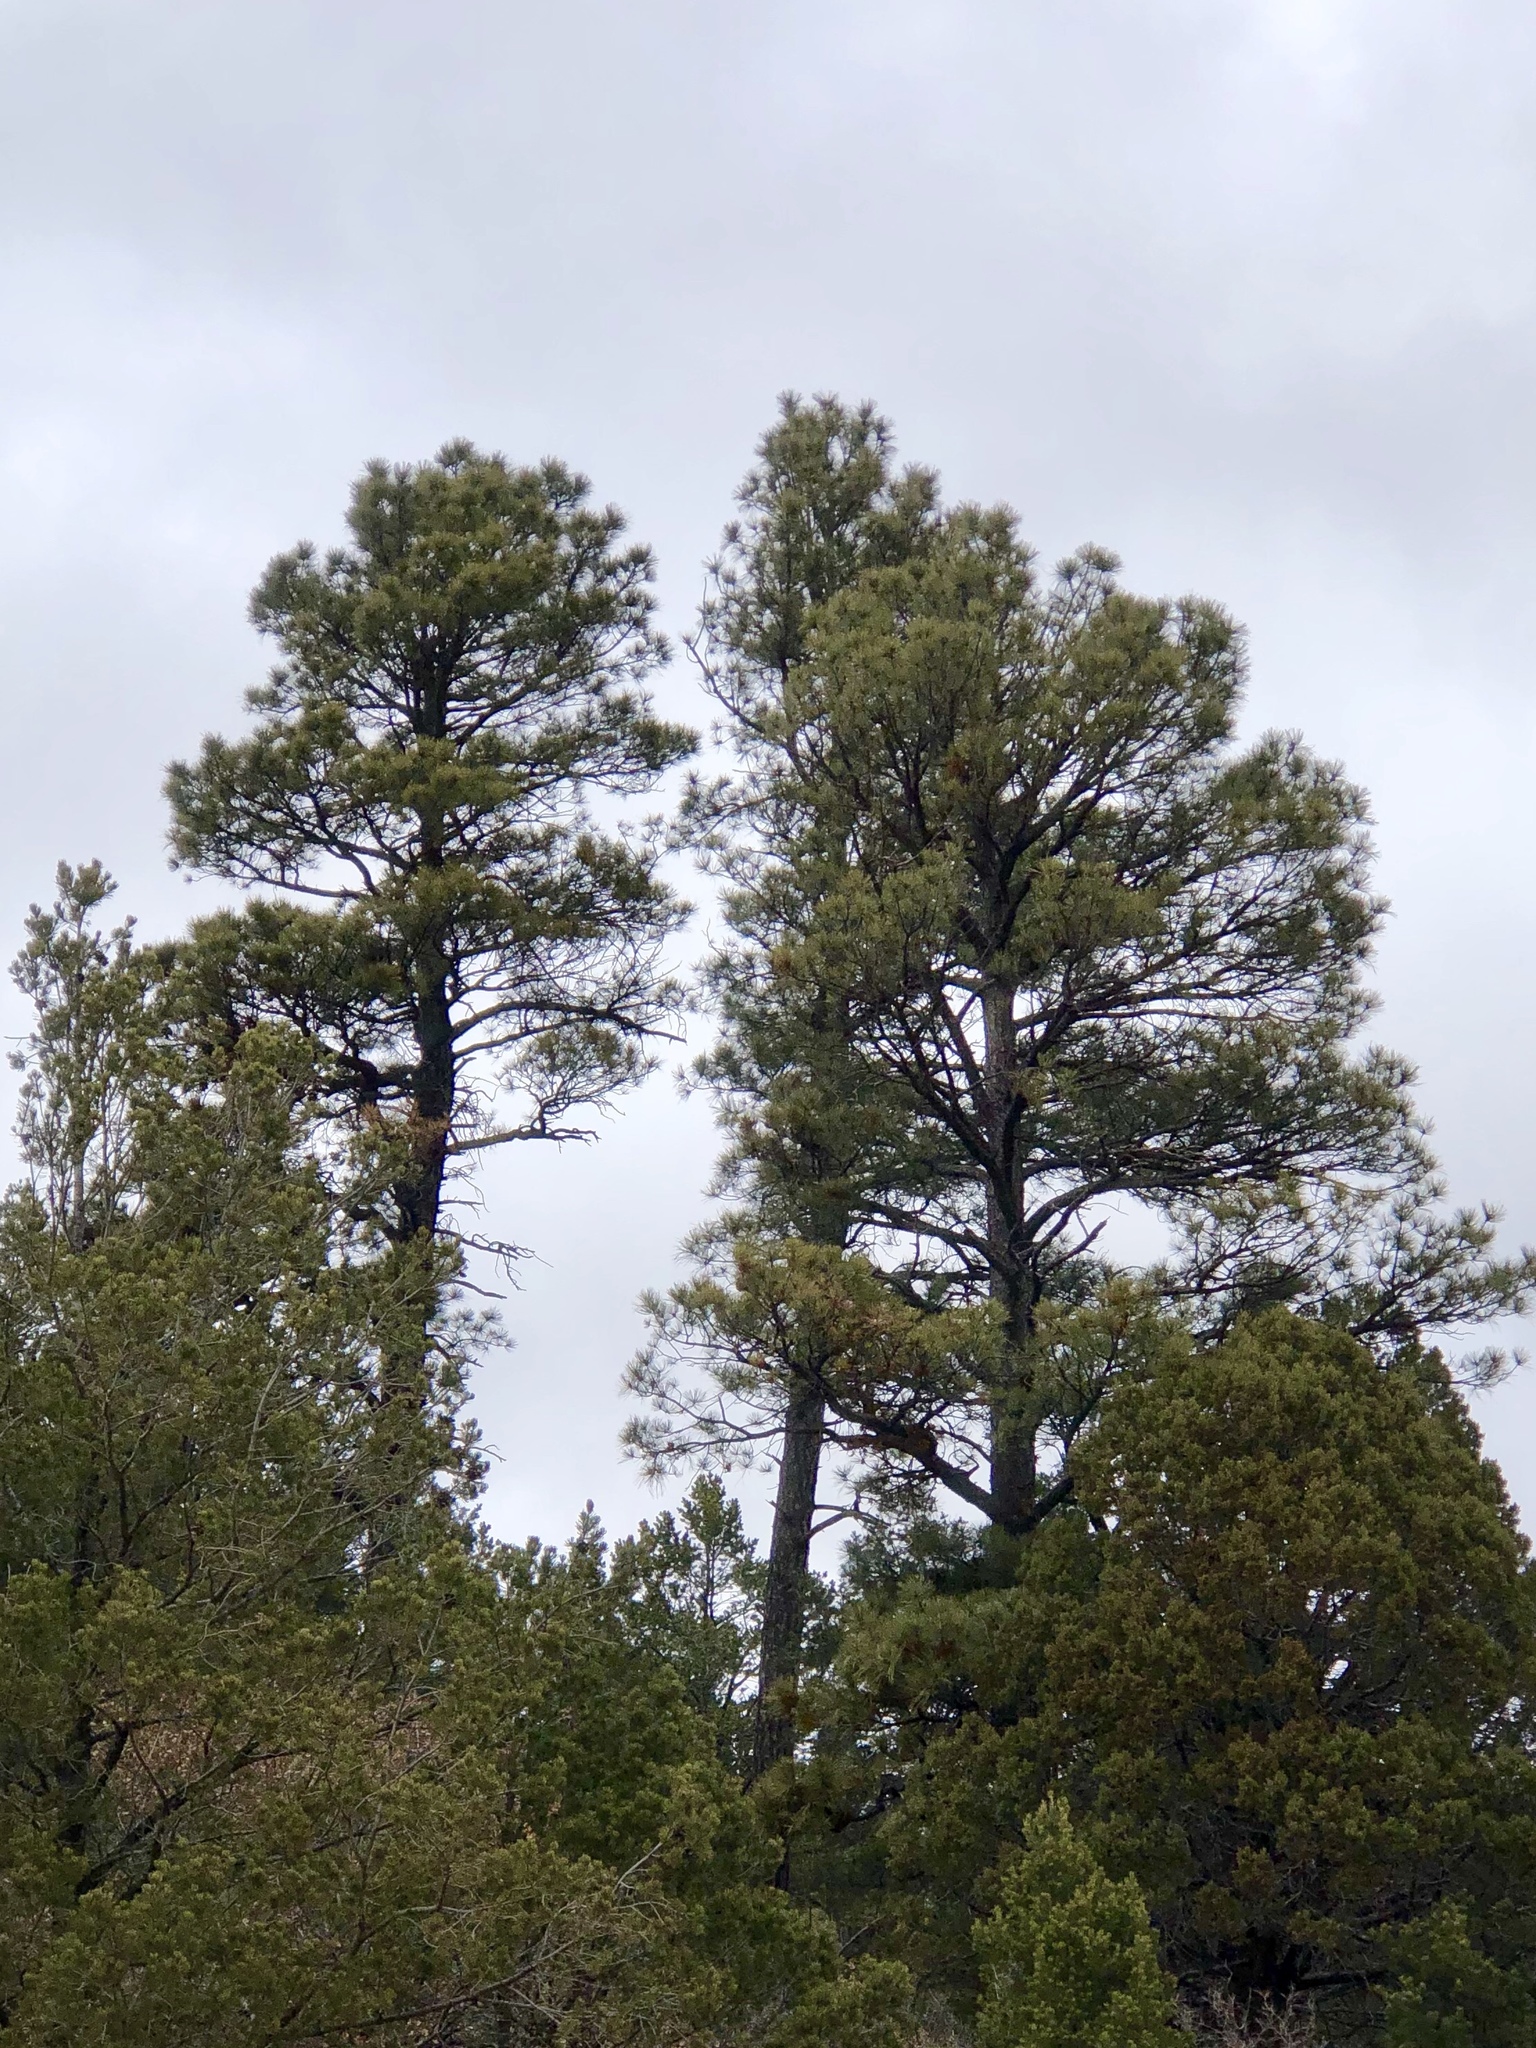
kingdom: Plantae
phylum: Tracheophyta
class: Pinopsida
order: Pinales
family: Pinaceae
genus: Pinus
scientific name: Pinus ponderosa
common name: Western yellow-pine
